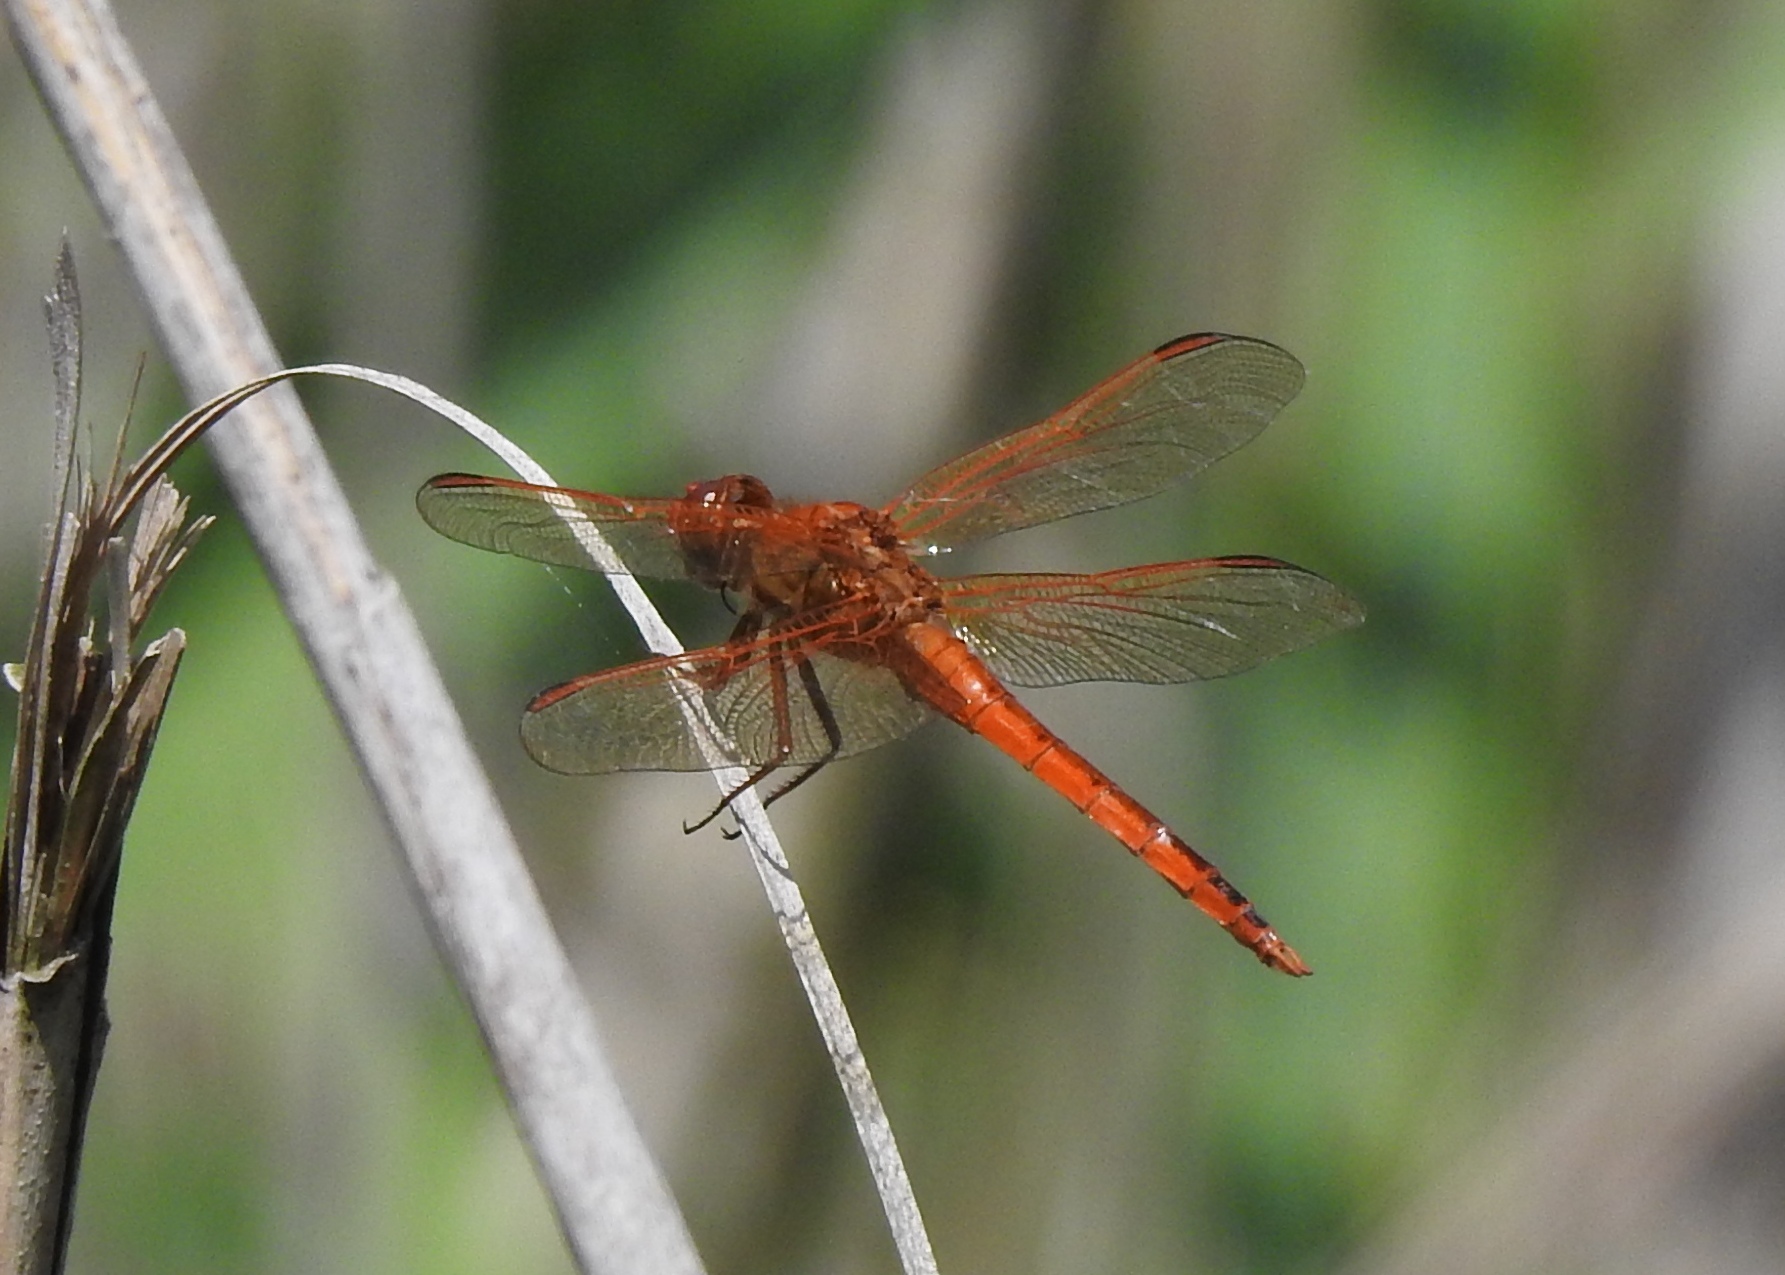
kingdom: Animalia
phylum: Arthropoda
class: Insecta
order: Odonata
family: Libellulidae
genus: Libellula
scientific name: Libellula needhami
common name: Needham's skimmer
